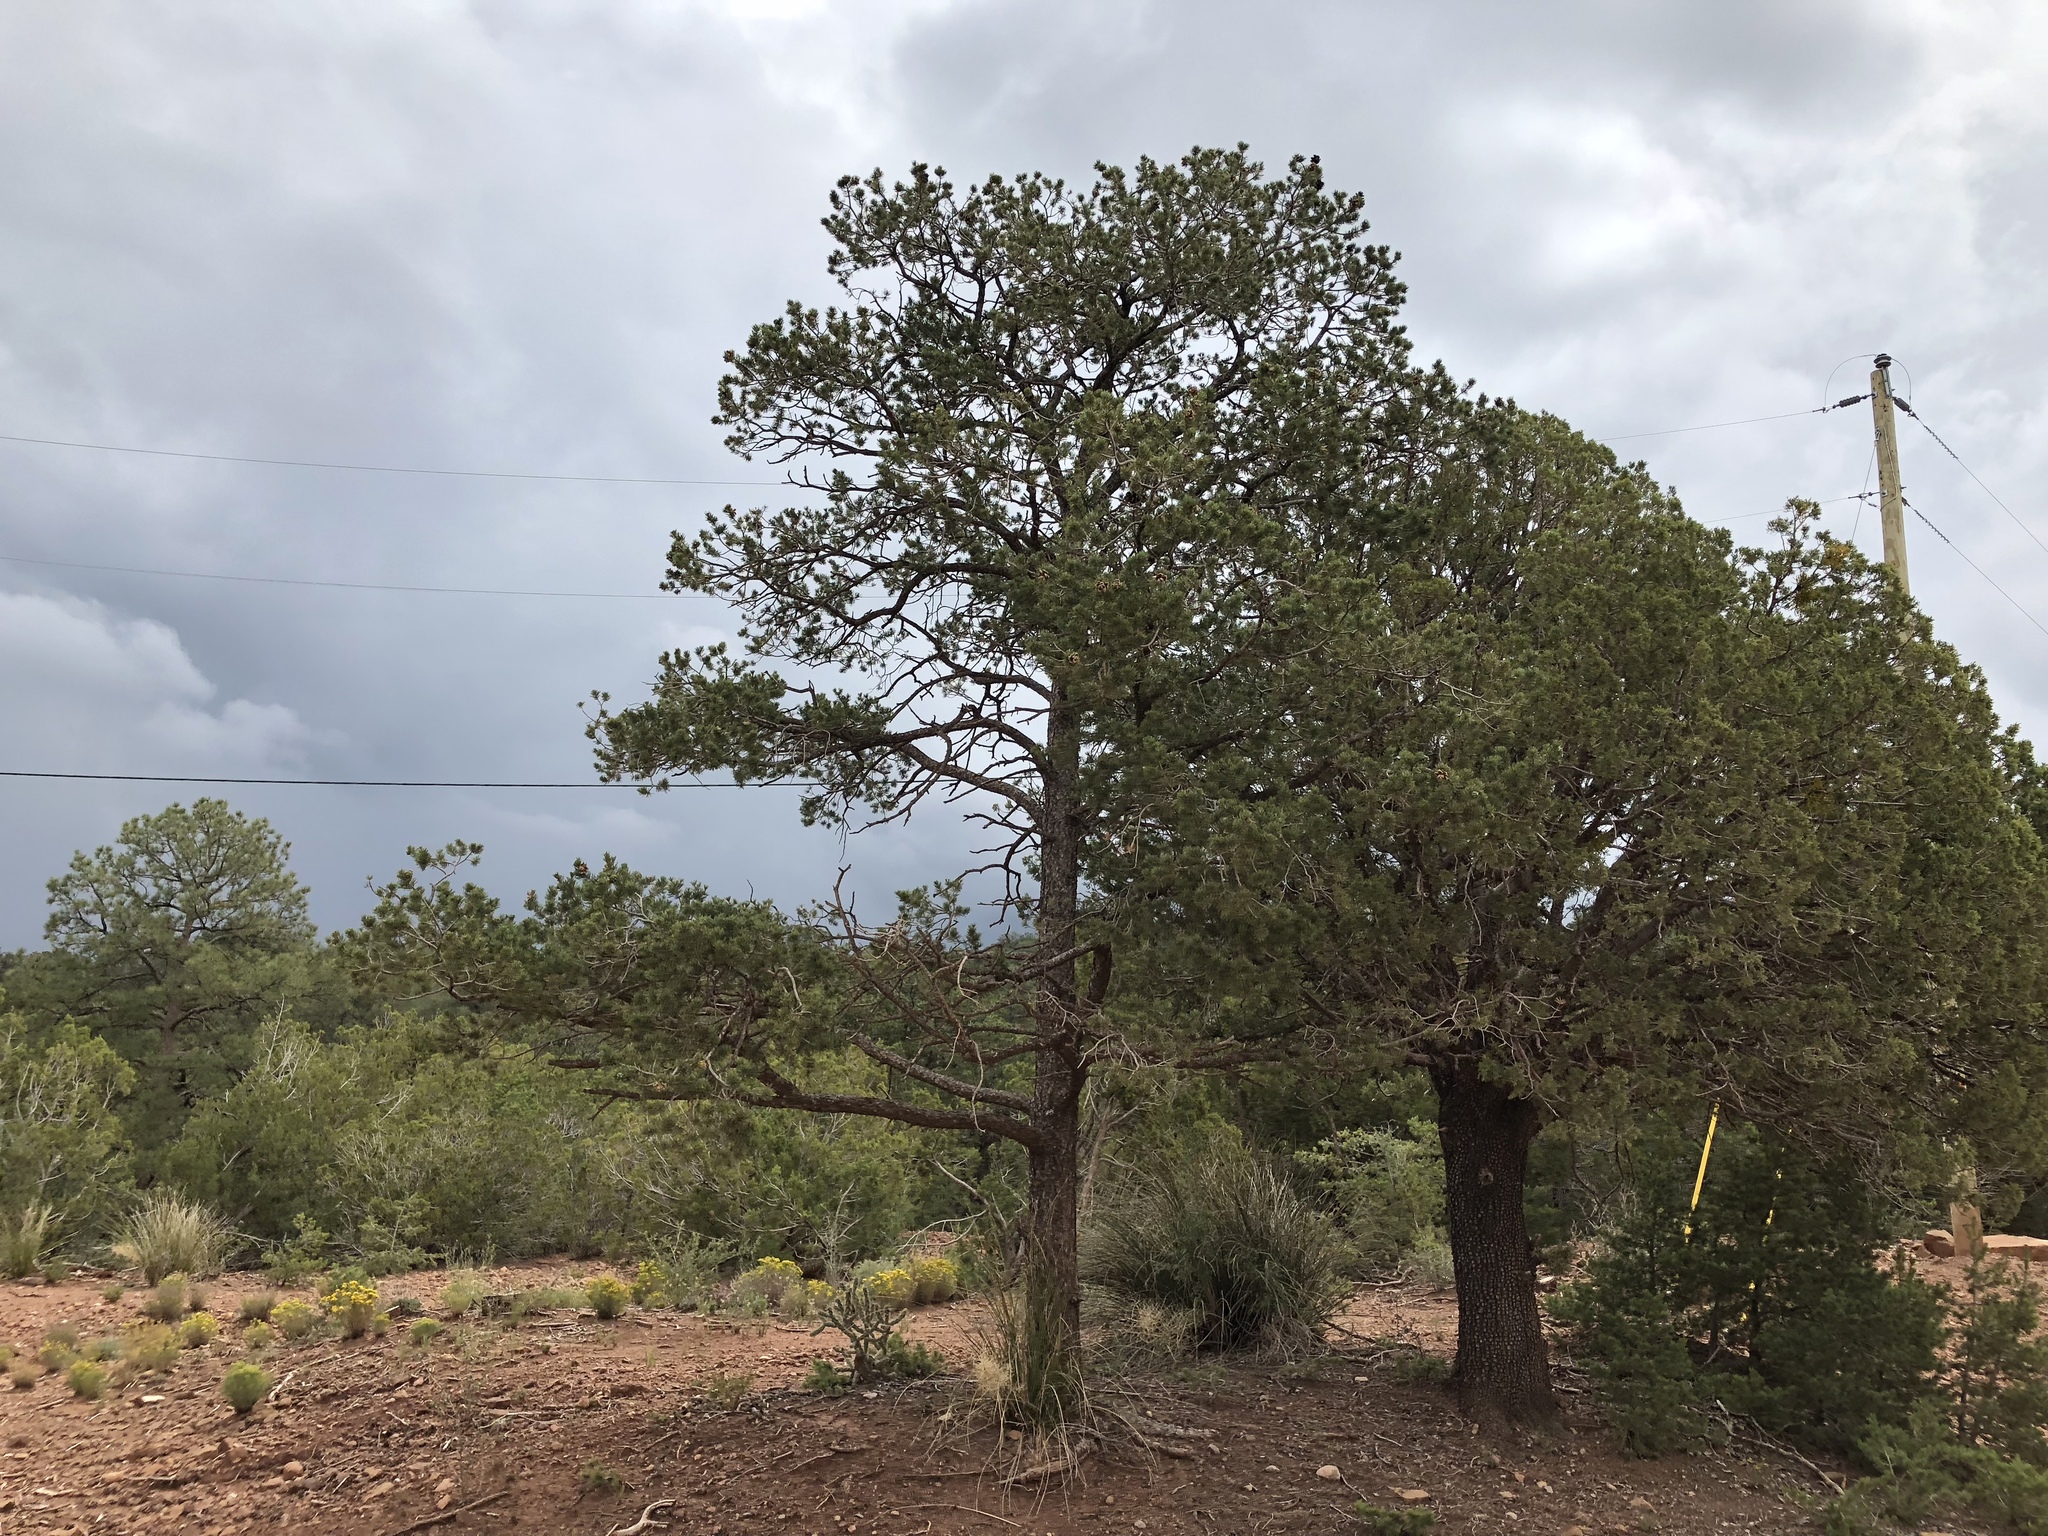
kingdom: Plantae
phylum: Tracheophyta
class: Pinopsida
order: Pinales
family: Pinaceae
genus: Pinus
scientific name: Pinus edulis
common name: Colorado pinyon
